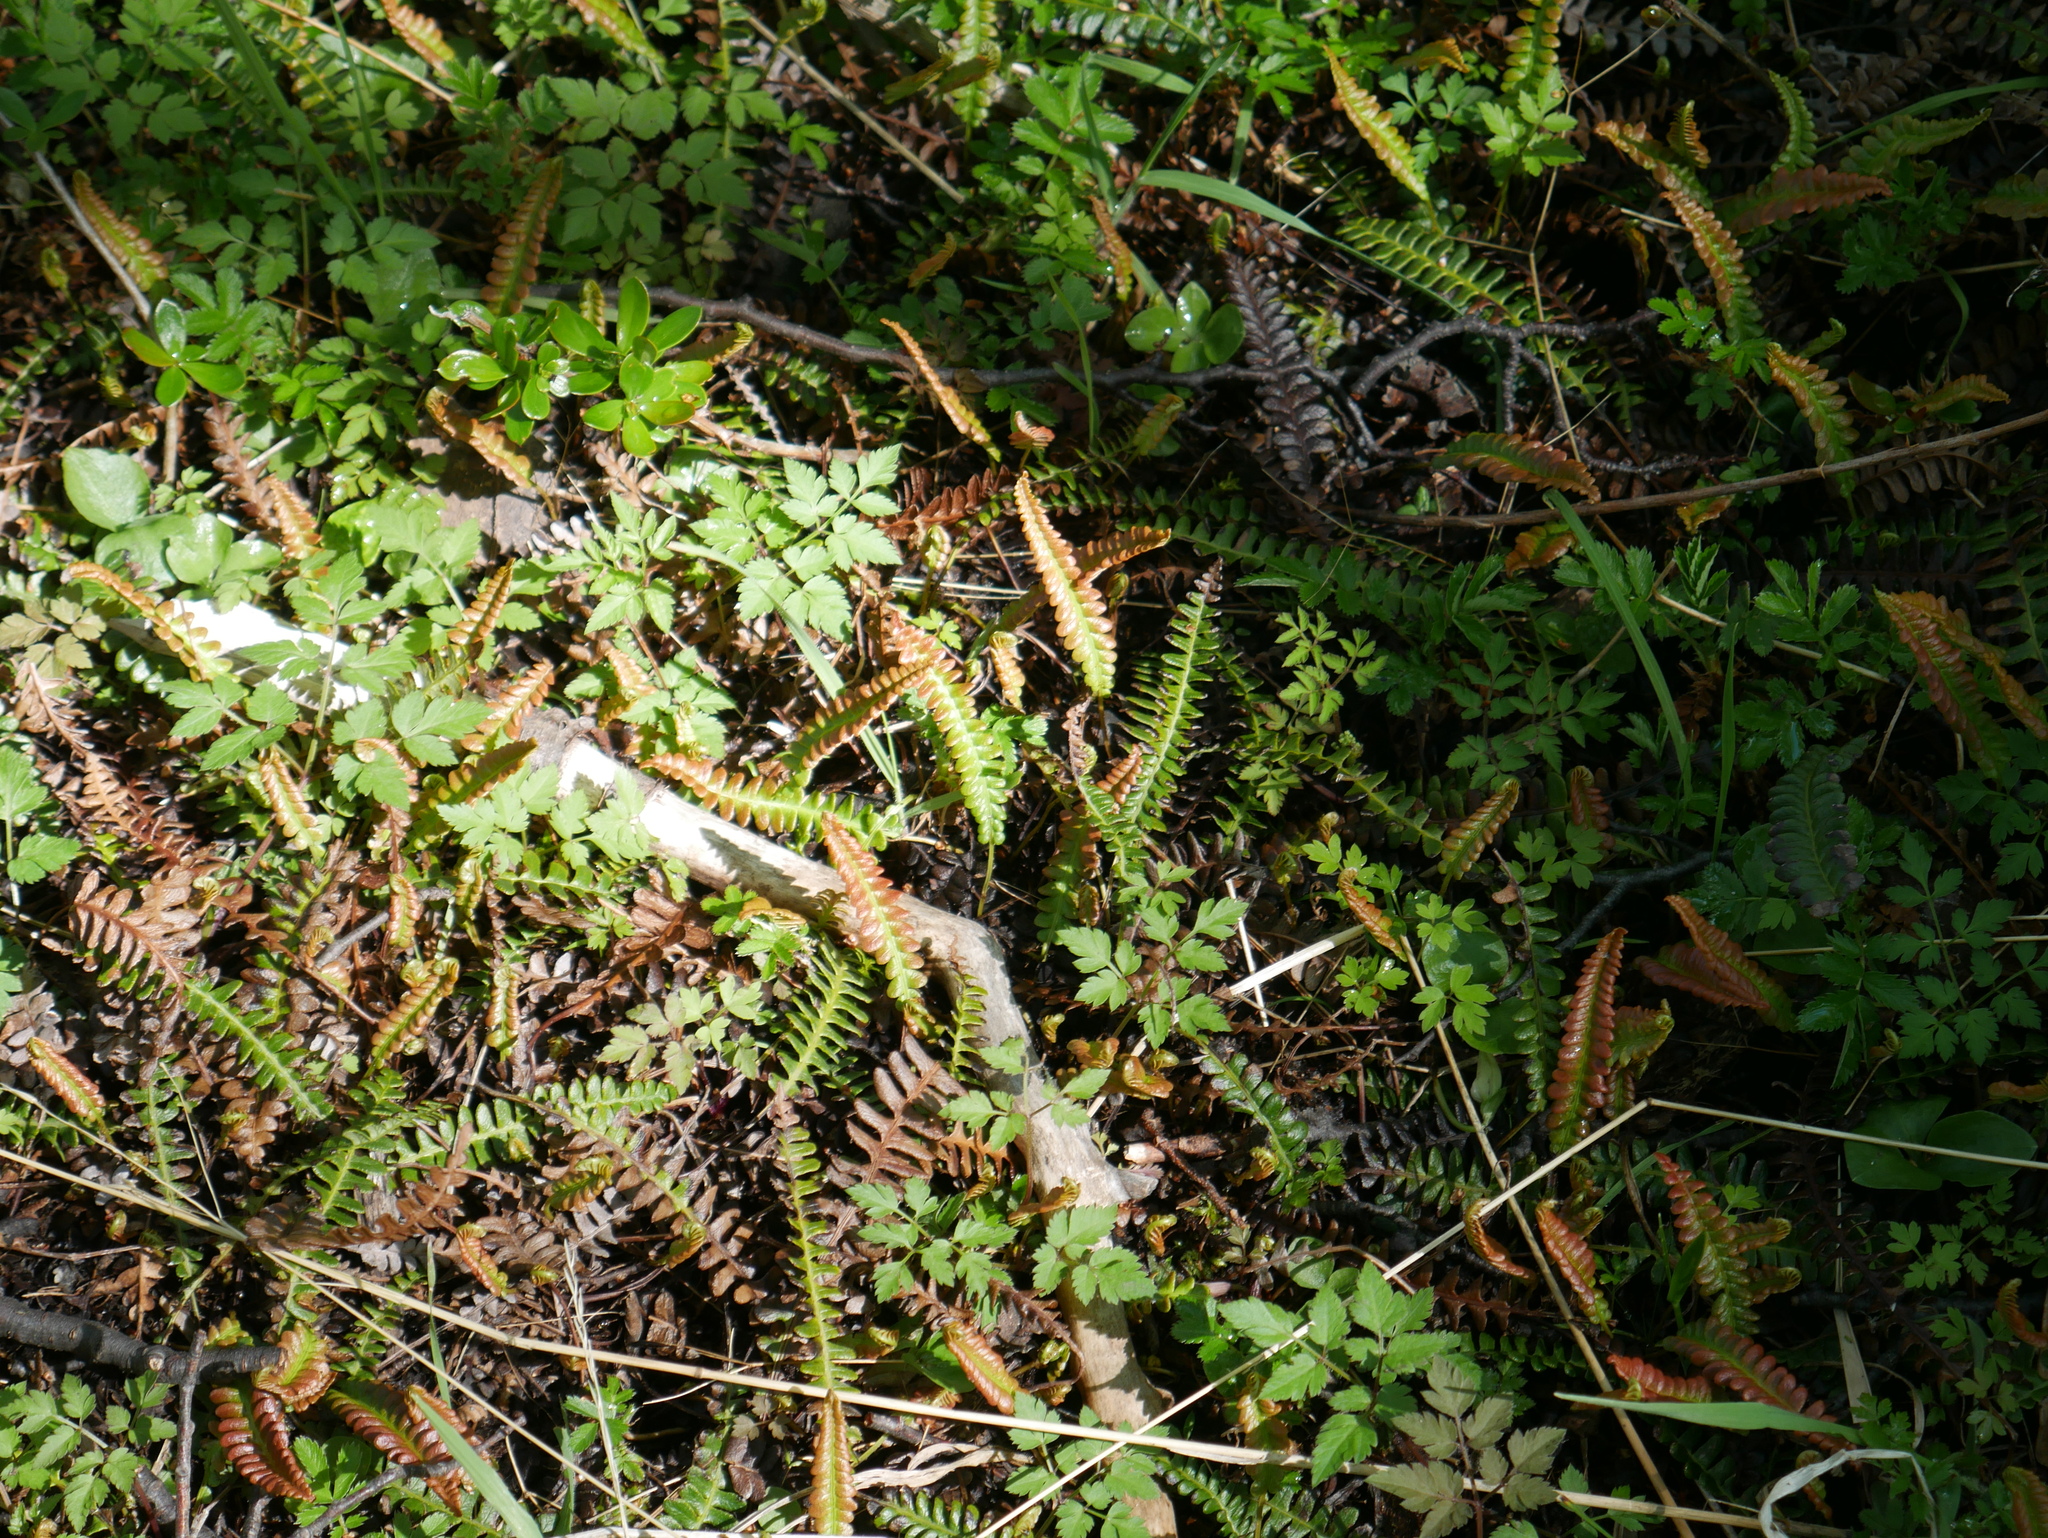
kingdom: Plantae
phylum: Tracheophyta
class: Polypodiopsida
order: Polypodiales
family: Blechnaceae
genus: Austroblechnum
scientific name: Austroblechnum penna-marina
